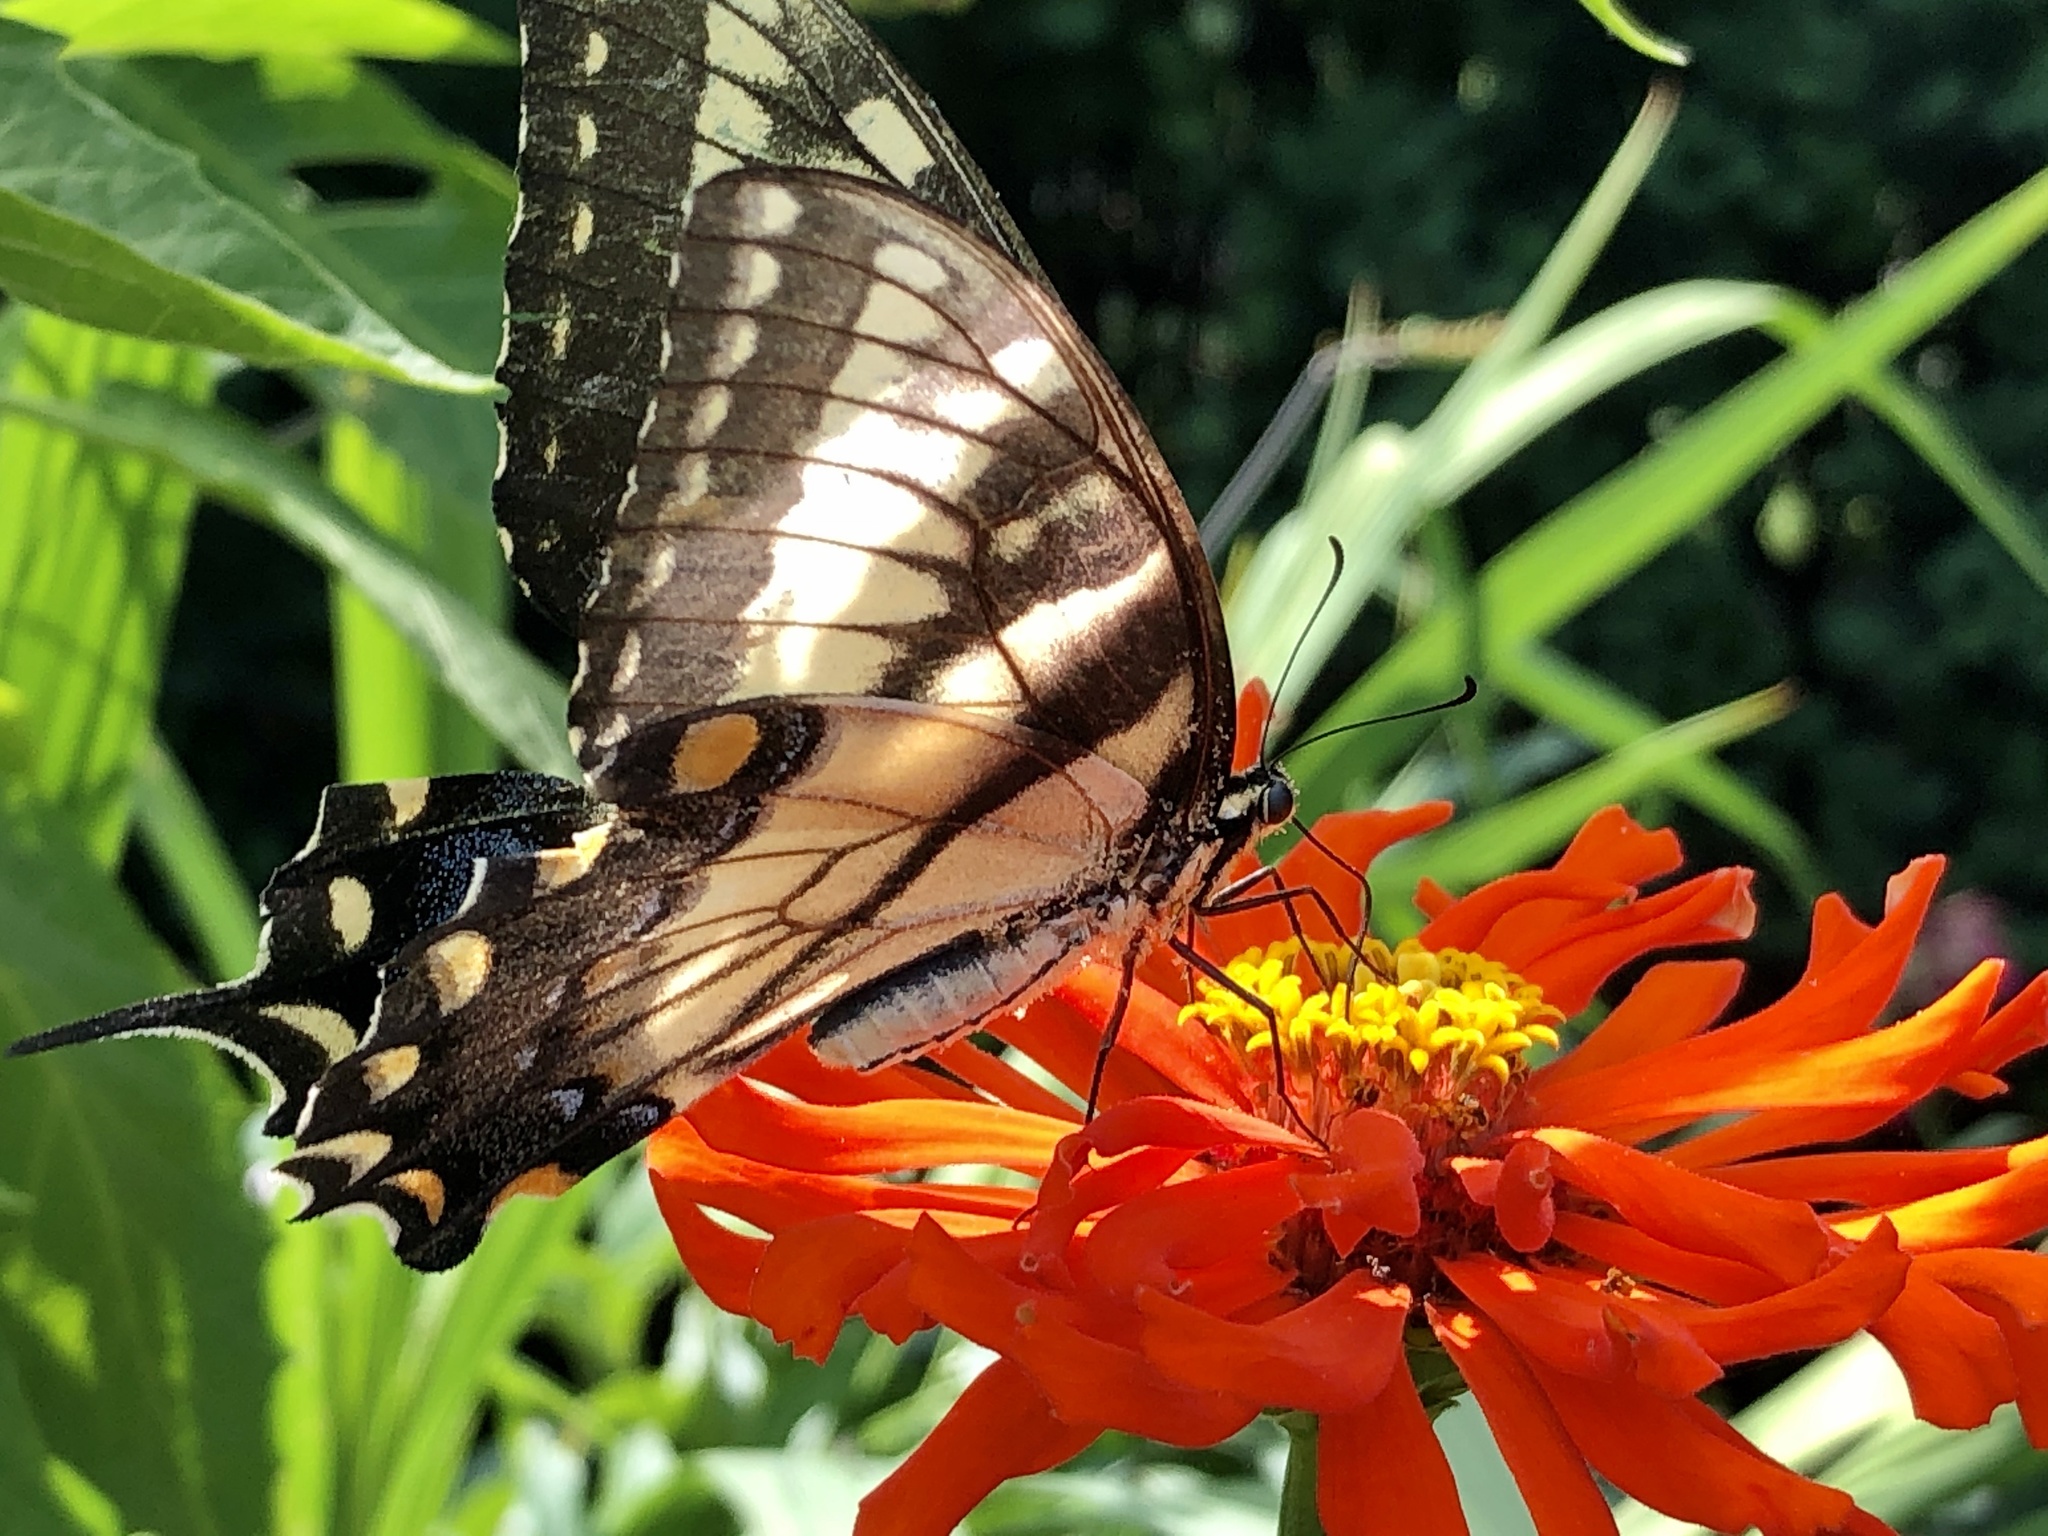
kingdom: Animalia
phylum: Arthropoda
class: Insecta
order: Lepidoptera
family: Papilionidae
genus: Papilio
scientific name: Papilio glaucus
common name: Tiger swallowtail
